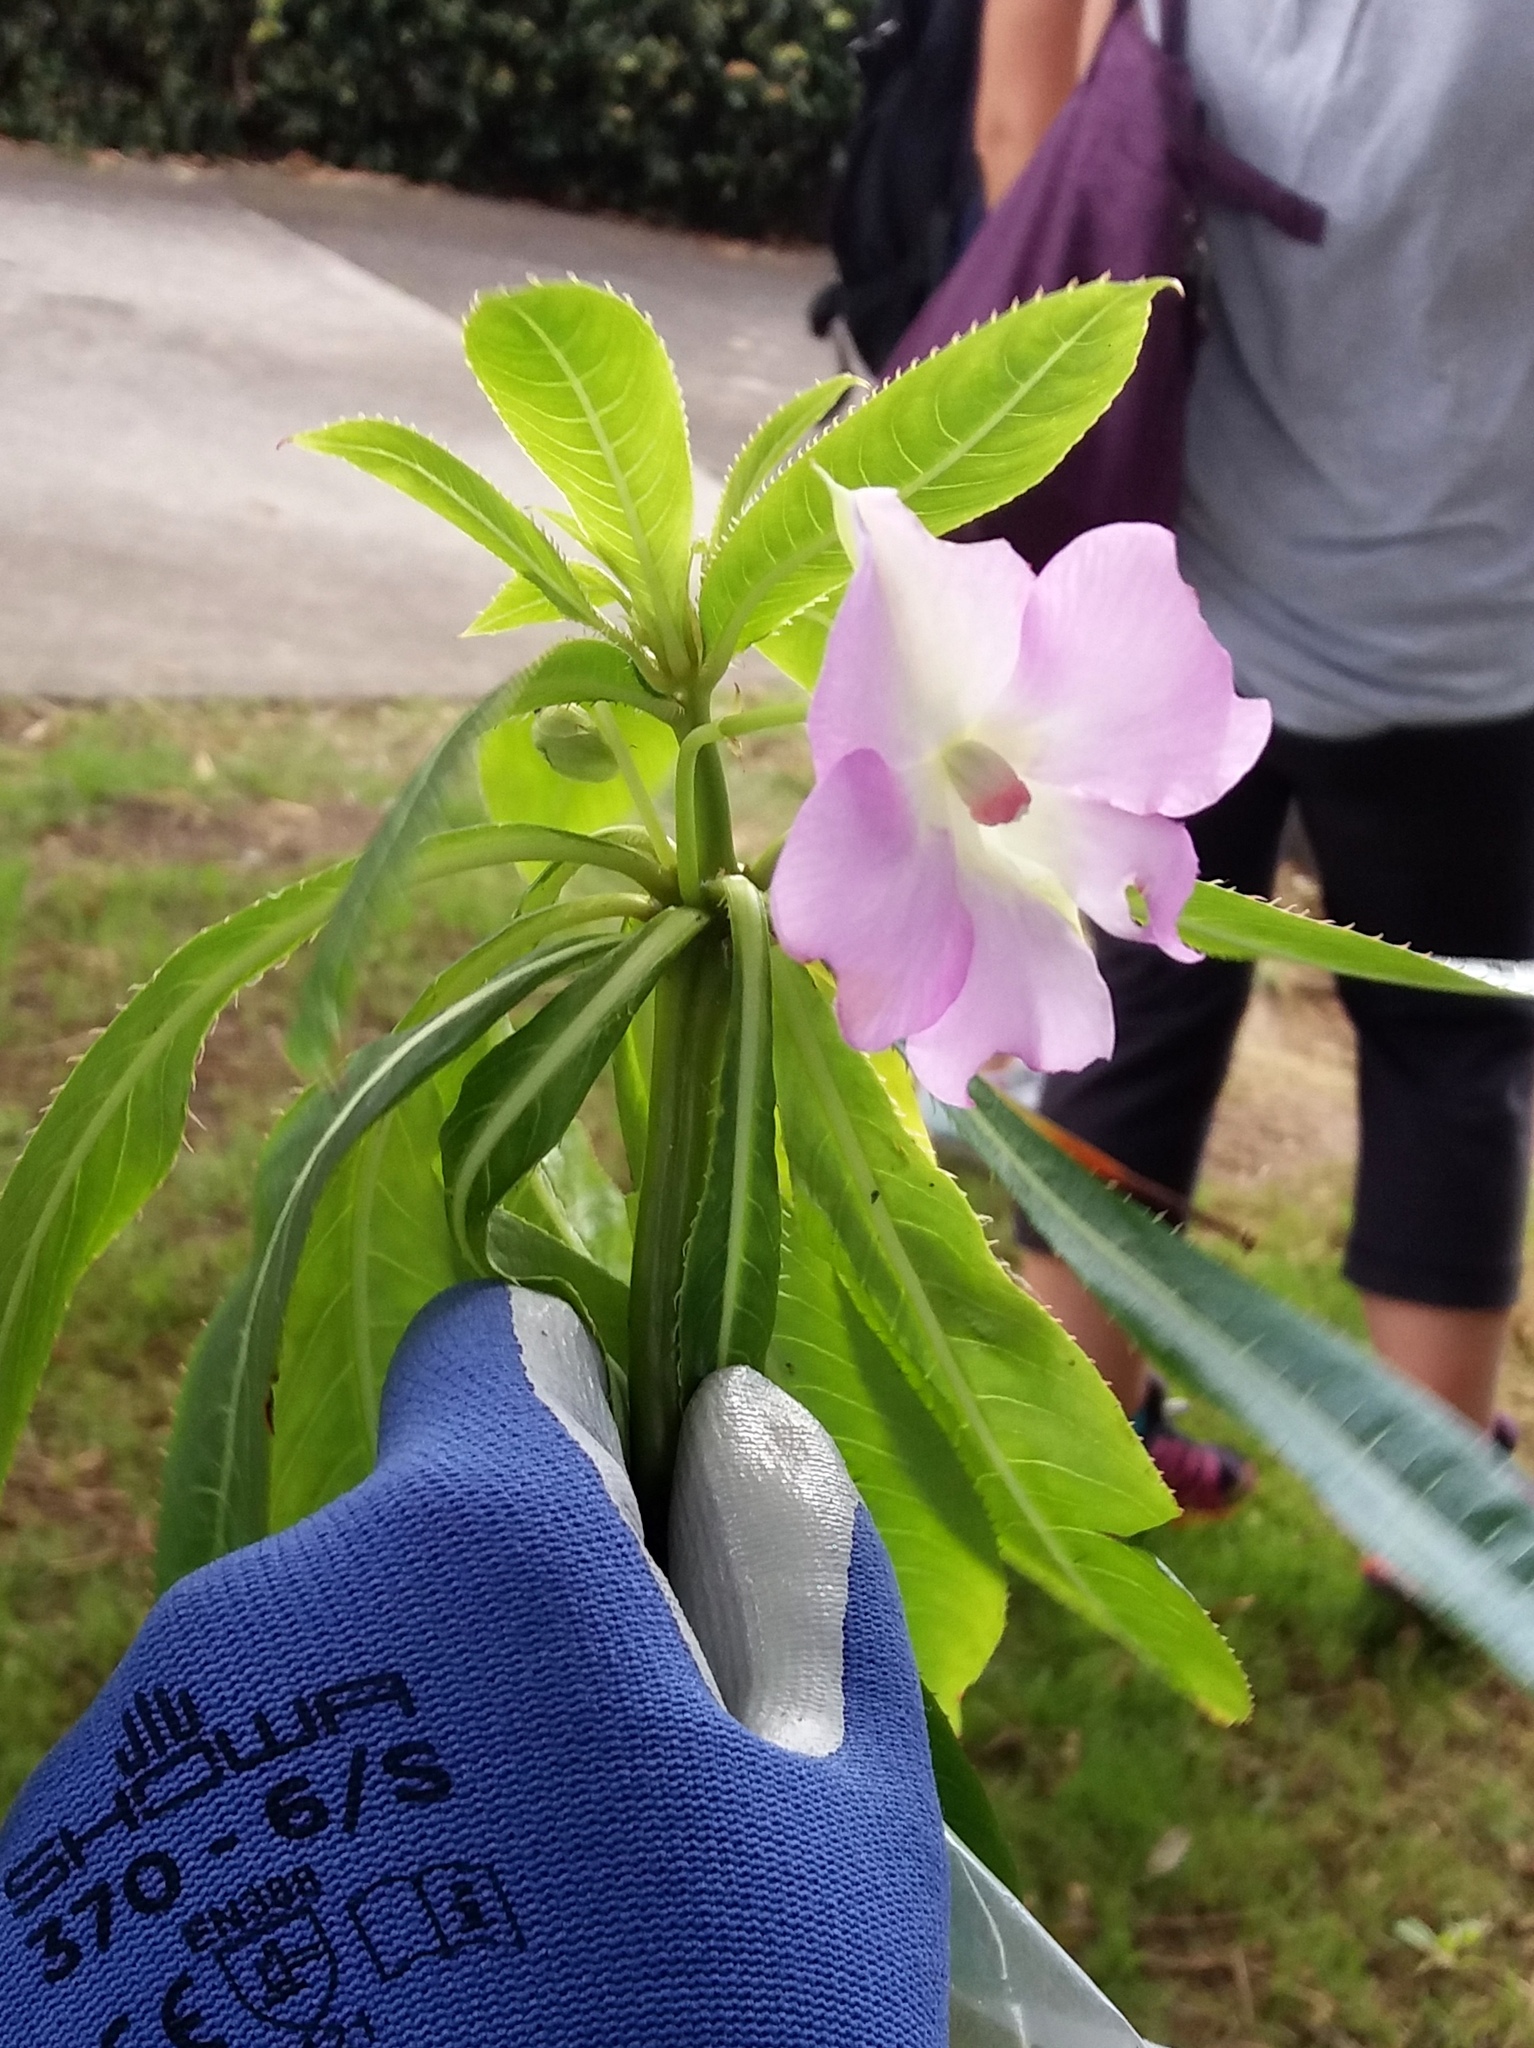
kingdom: Plantae
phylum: Tracheophyta
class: Magnoliopsida
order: Ericales
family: Balsaminaceae
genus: Impatiens
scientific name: Impatiens sodenii
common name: Oliver's touch-me-not
